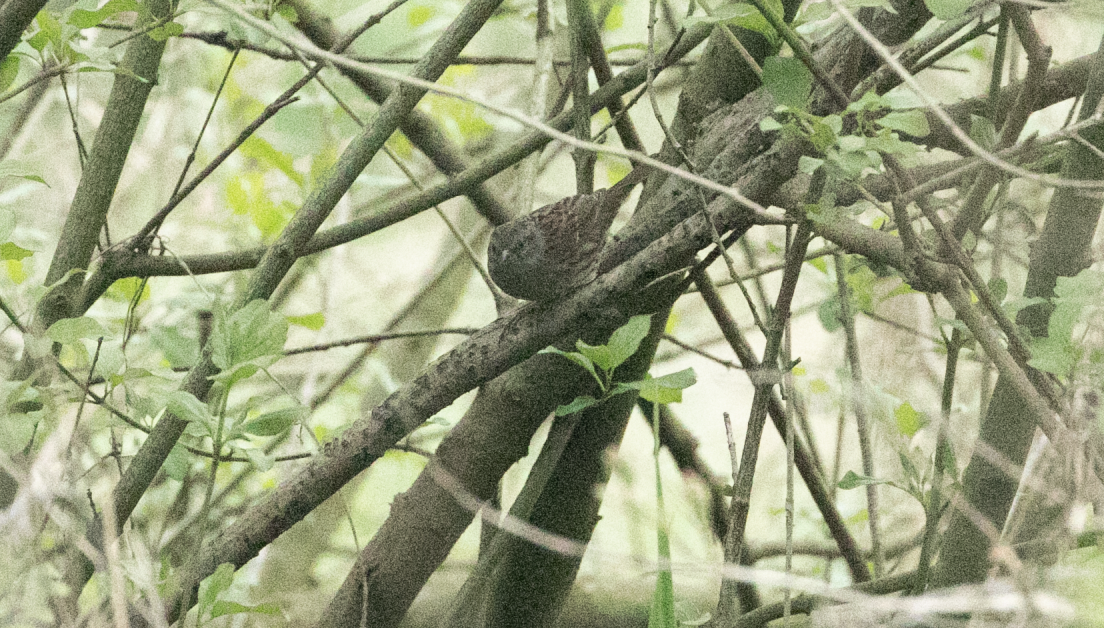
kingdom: Animalia
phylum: Chordata
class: Aves
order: Passeriformes
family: Prunellidae
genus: Prunella
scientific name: Prunella modularis
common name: Dunnock
